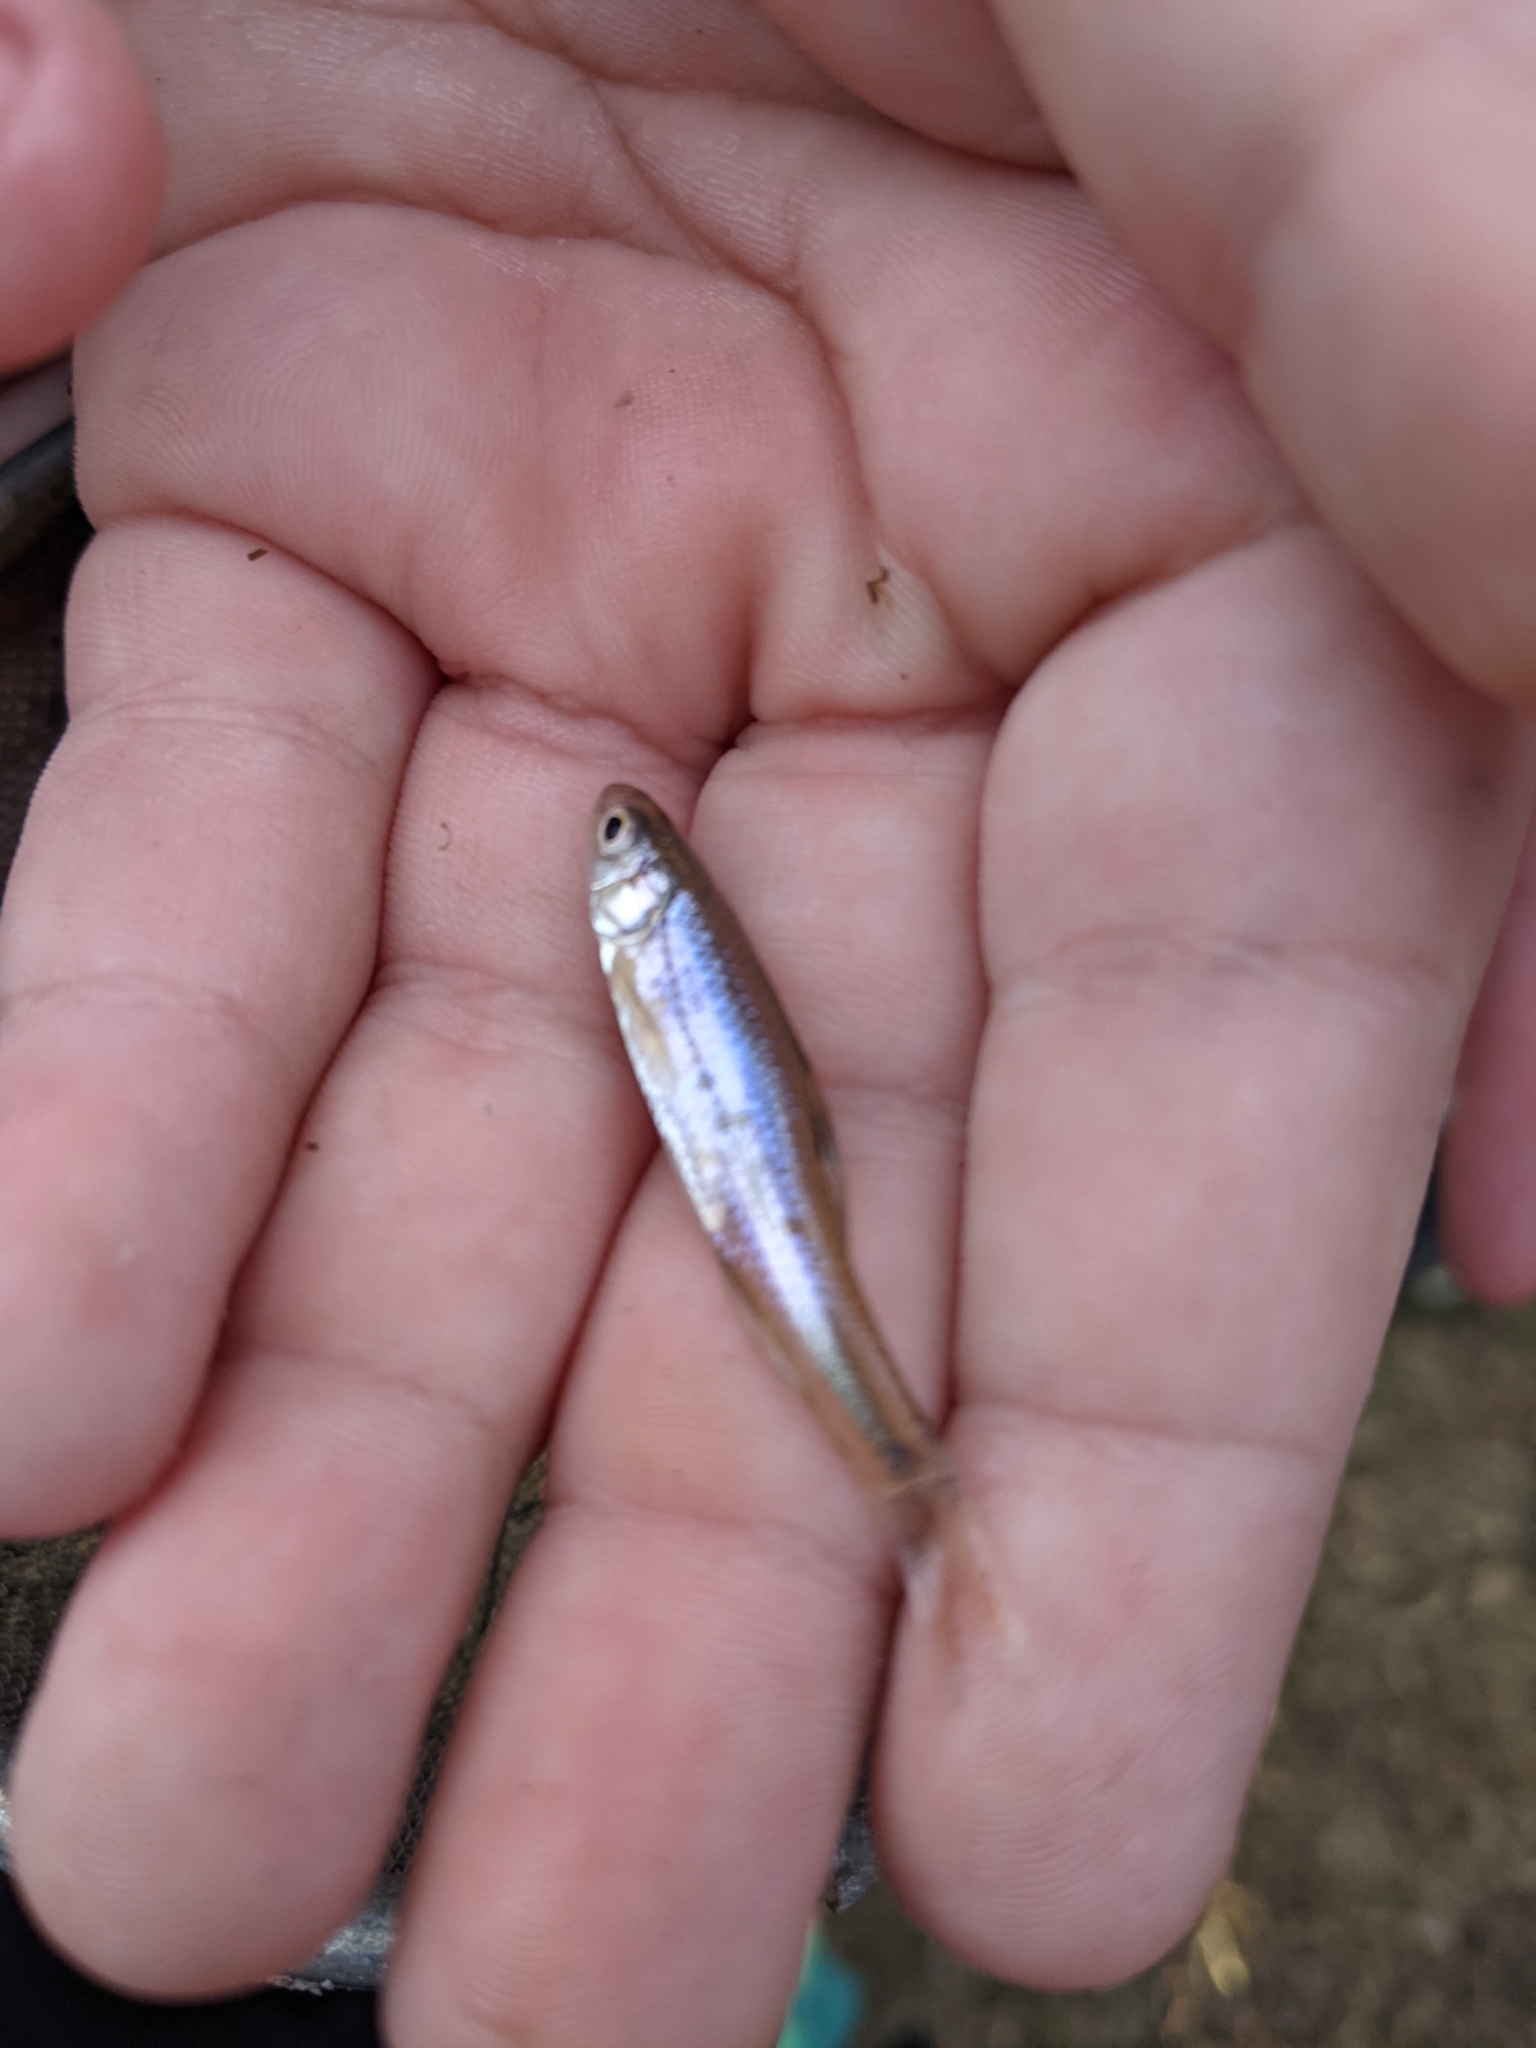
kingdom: Animalia
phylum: Chordata
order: Cypriniformes
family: Cyprinidae
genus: Notropis
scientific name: Notropis
